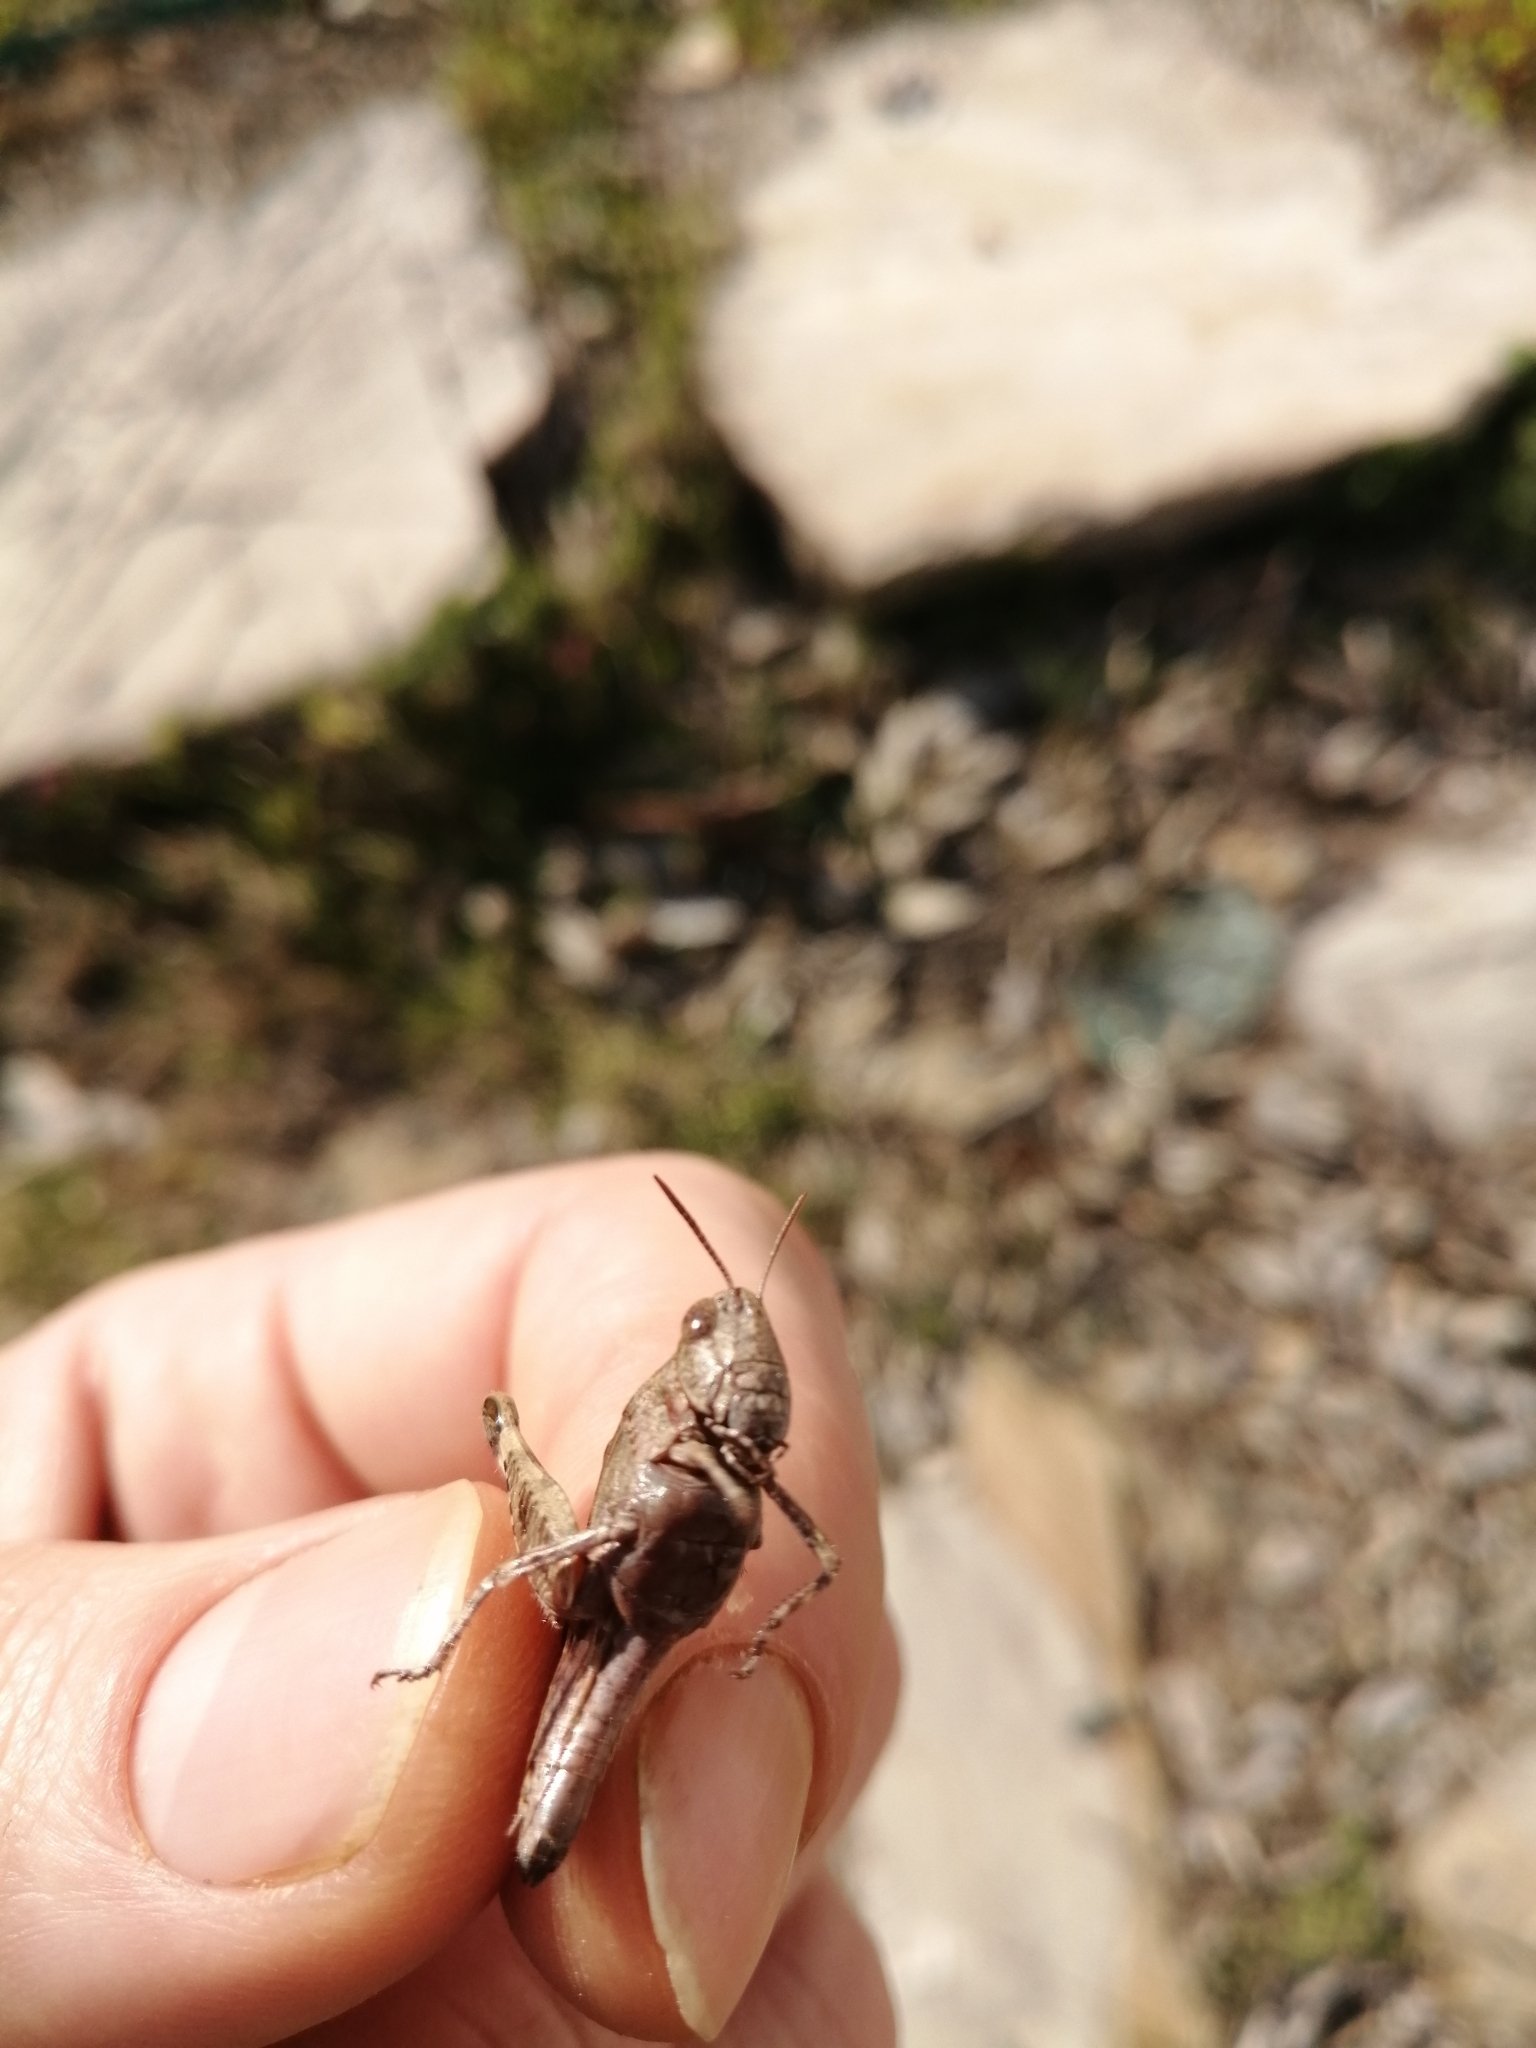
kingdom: Animalia
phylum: Arthropoda
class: Insecta
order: Orthoptera
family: Acrididae
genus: Aiolopus
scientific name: Aiolopus strepens
